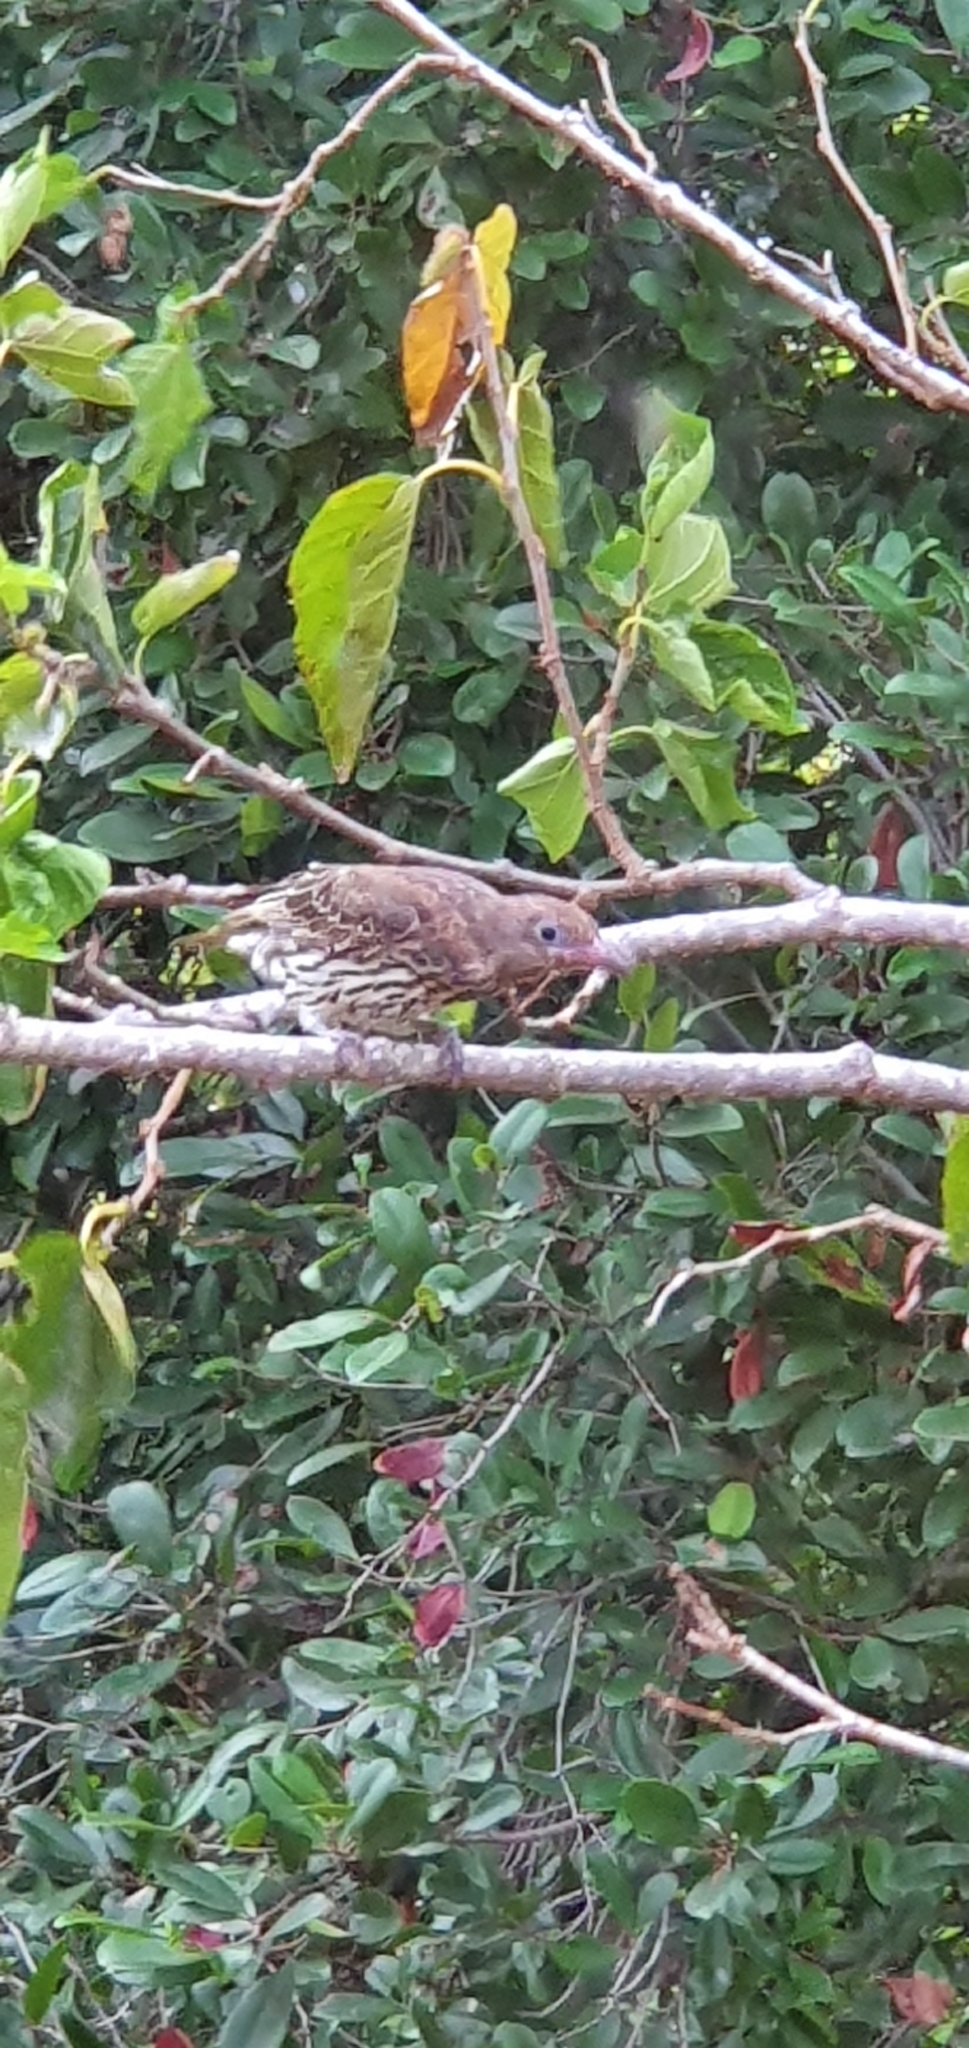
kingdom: Animalia
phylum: Chordata
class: Aves
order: Passeriformes
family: Oriolidae
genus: Sphecotheres
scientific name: Sphecotheres vieilloti
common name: Australasian figbird
